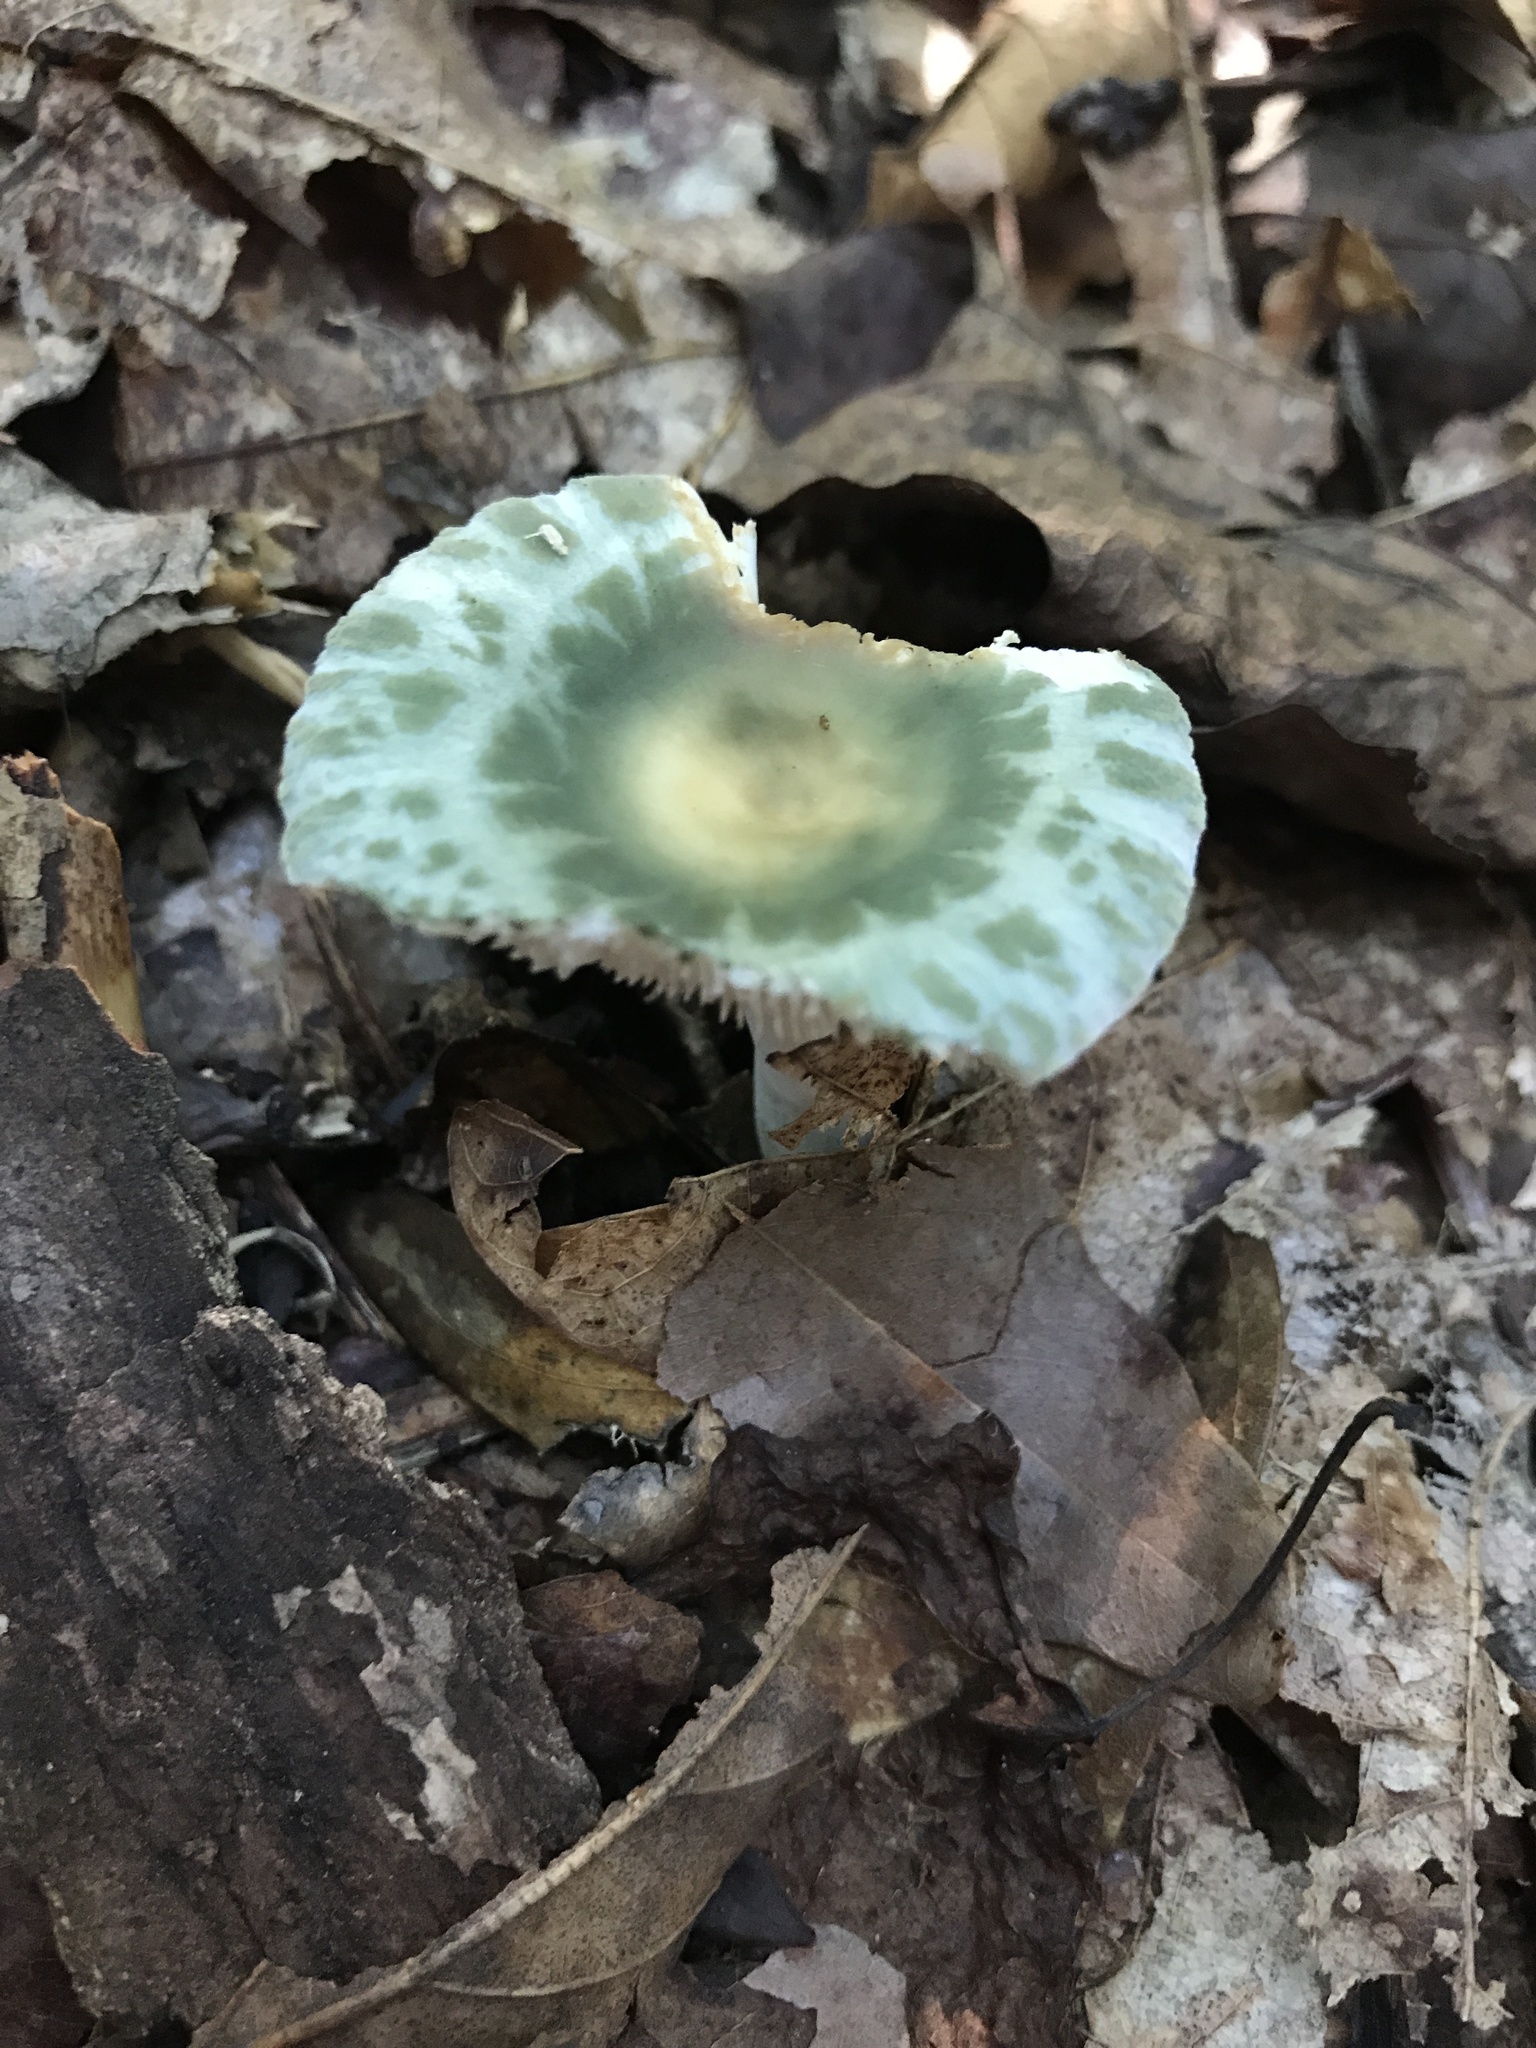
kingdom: Fungi
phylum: Basidiomycota
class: Agaricomycetes
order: Russulales
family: Russulaceae
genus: Russula
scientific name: Russula parvovirescens
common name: Blue-green cracking russula
